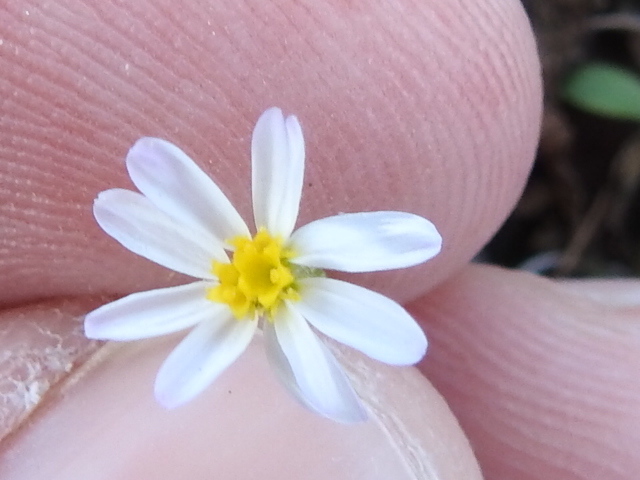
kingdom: Plantae
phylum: Tracheophyta
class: Magnoliopsida
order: Asterales
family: Asteraceae
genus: Chaetopappa
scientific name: Chaetopappa asteroides
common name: Tiny lazy daisy
